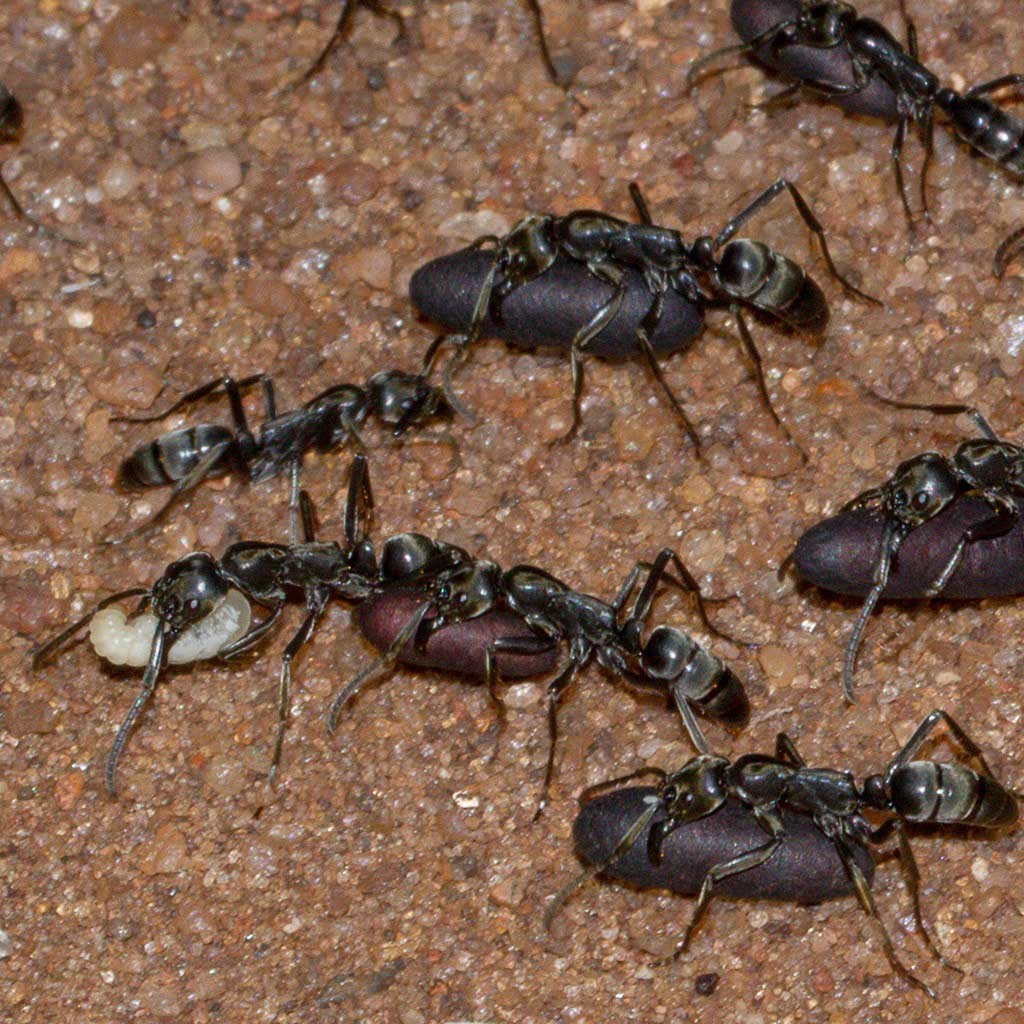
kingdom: Animalia
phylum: Arthropoda
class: Insecta
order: Hymenoptera
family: Formicidae
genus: Megaponera
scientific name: Megaponera analis
